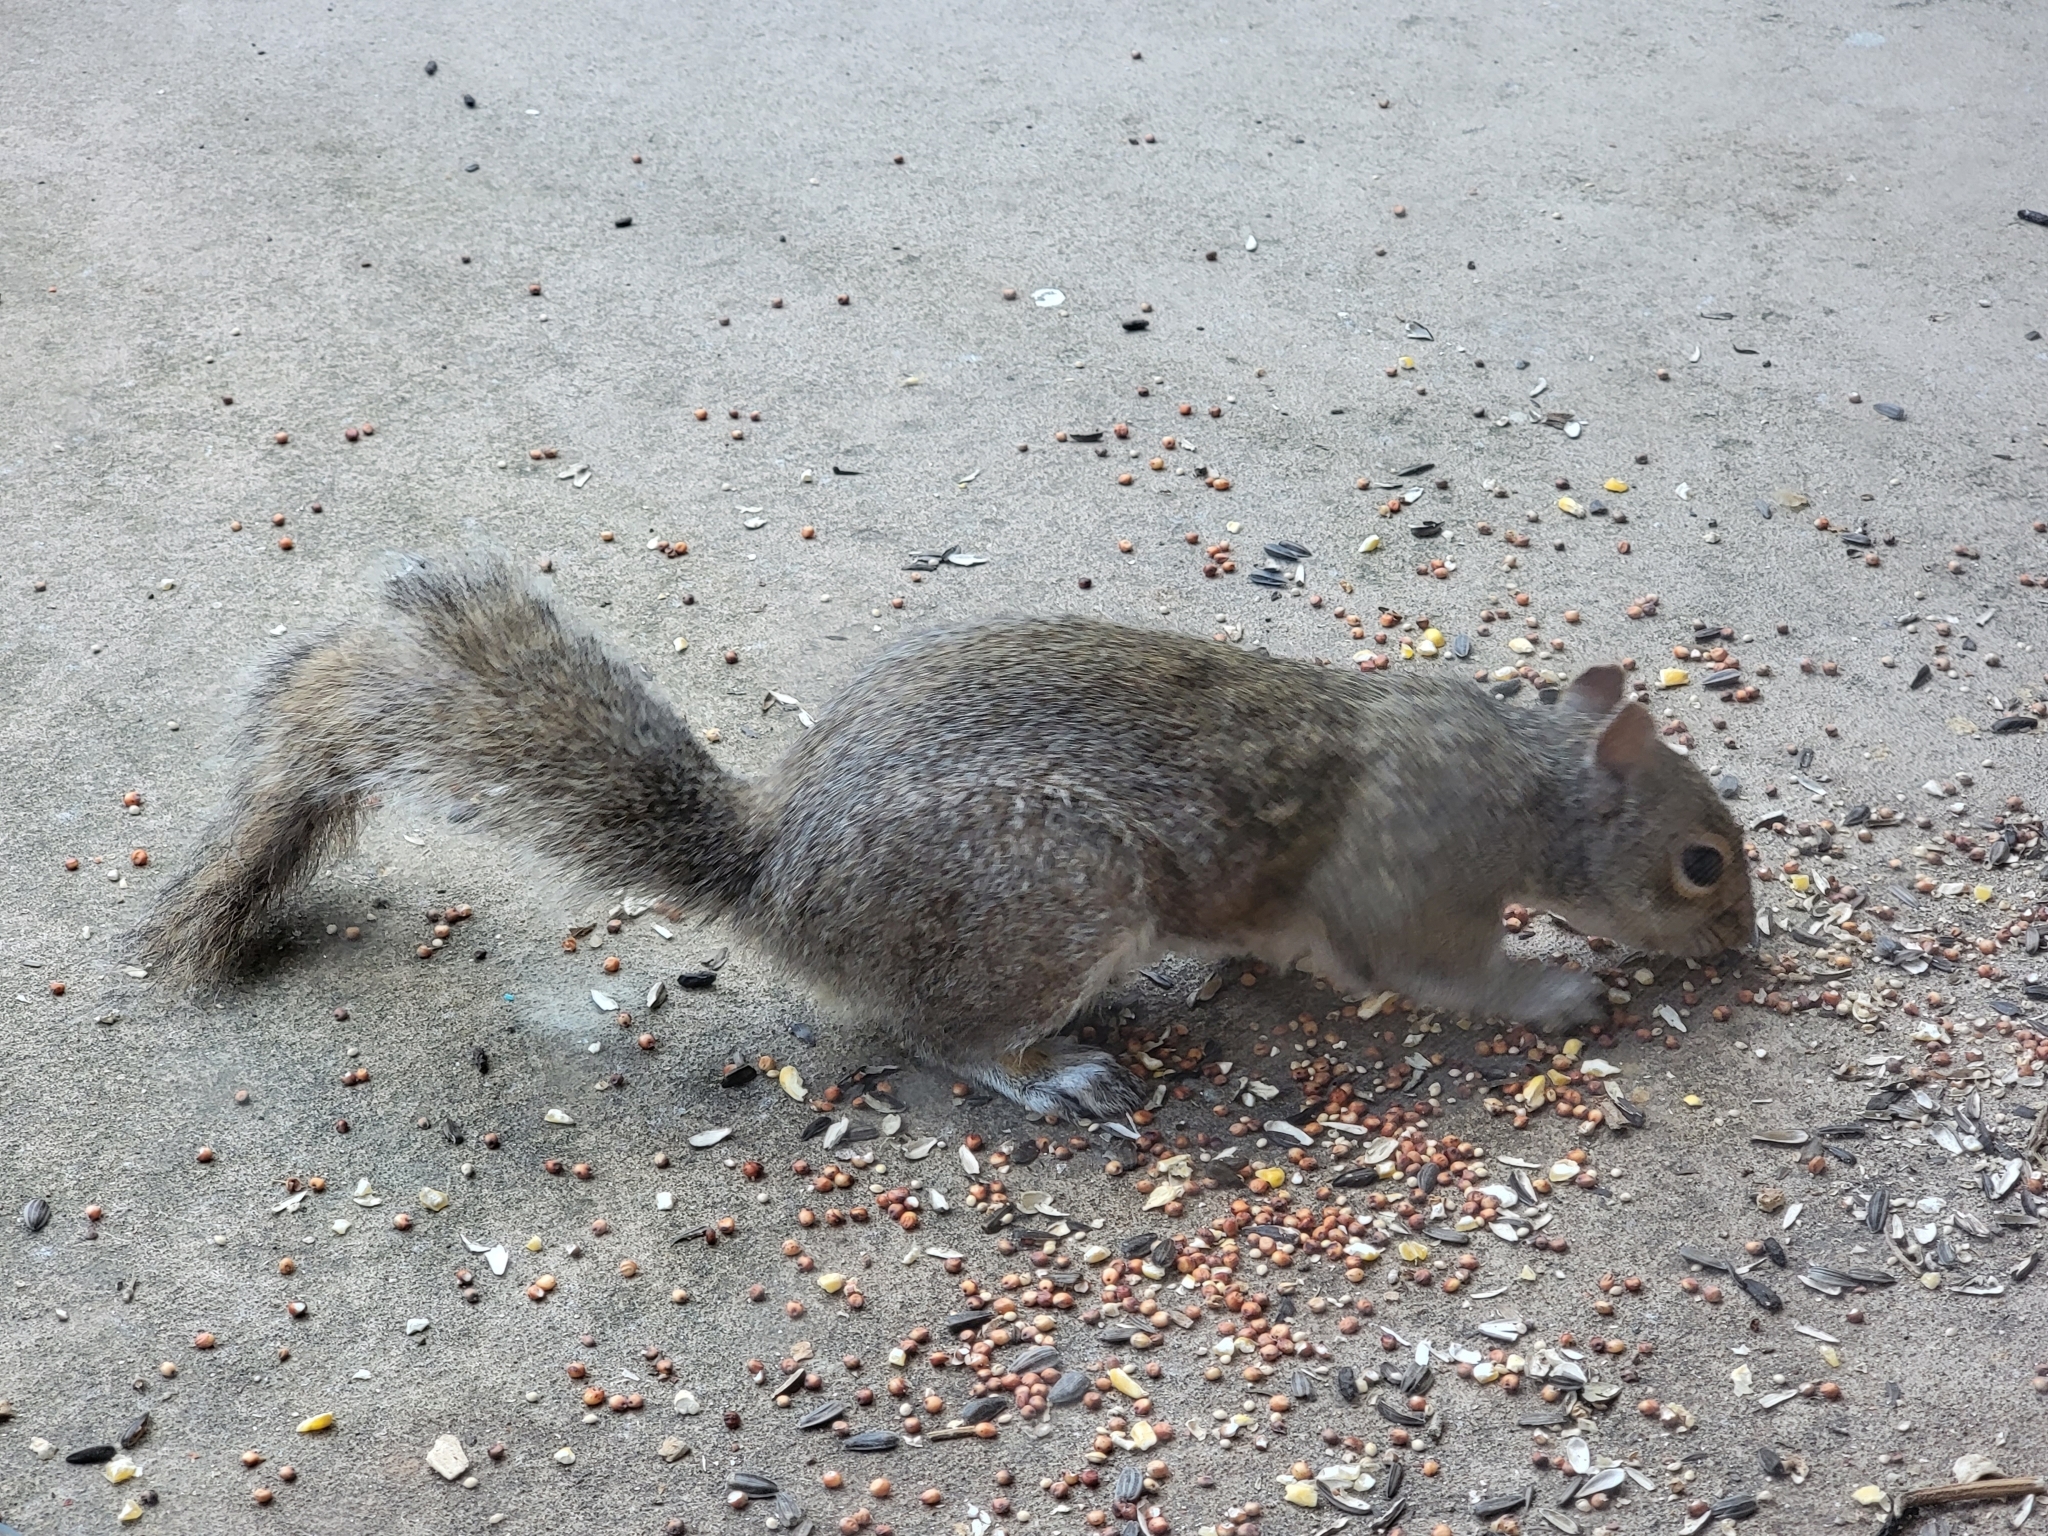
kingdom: Animalia
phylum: Chordata
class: Mammalia
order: Rodentia
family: Sciuridae
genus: Sciurus
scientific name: Sciurus carolinensis
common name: Eastern gray squirrel
